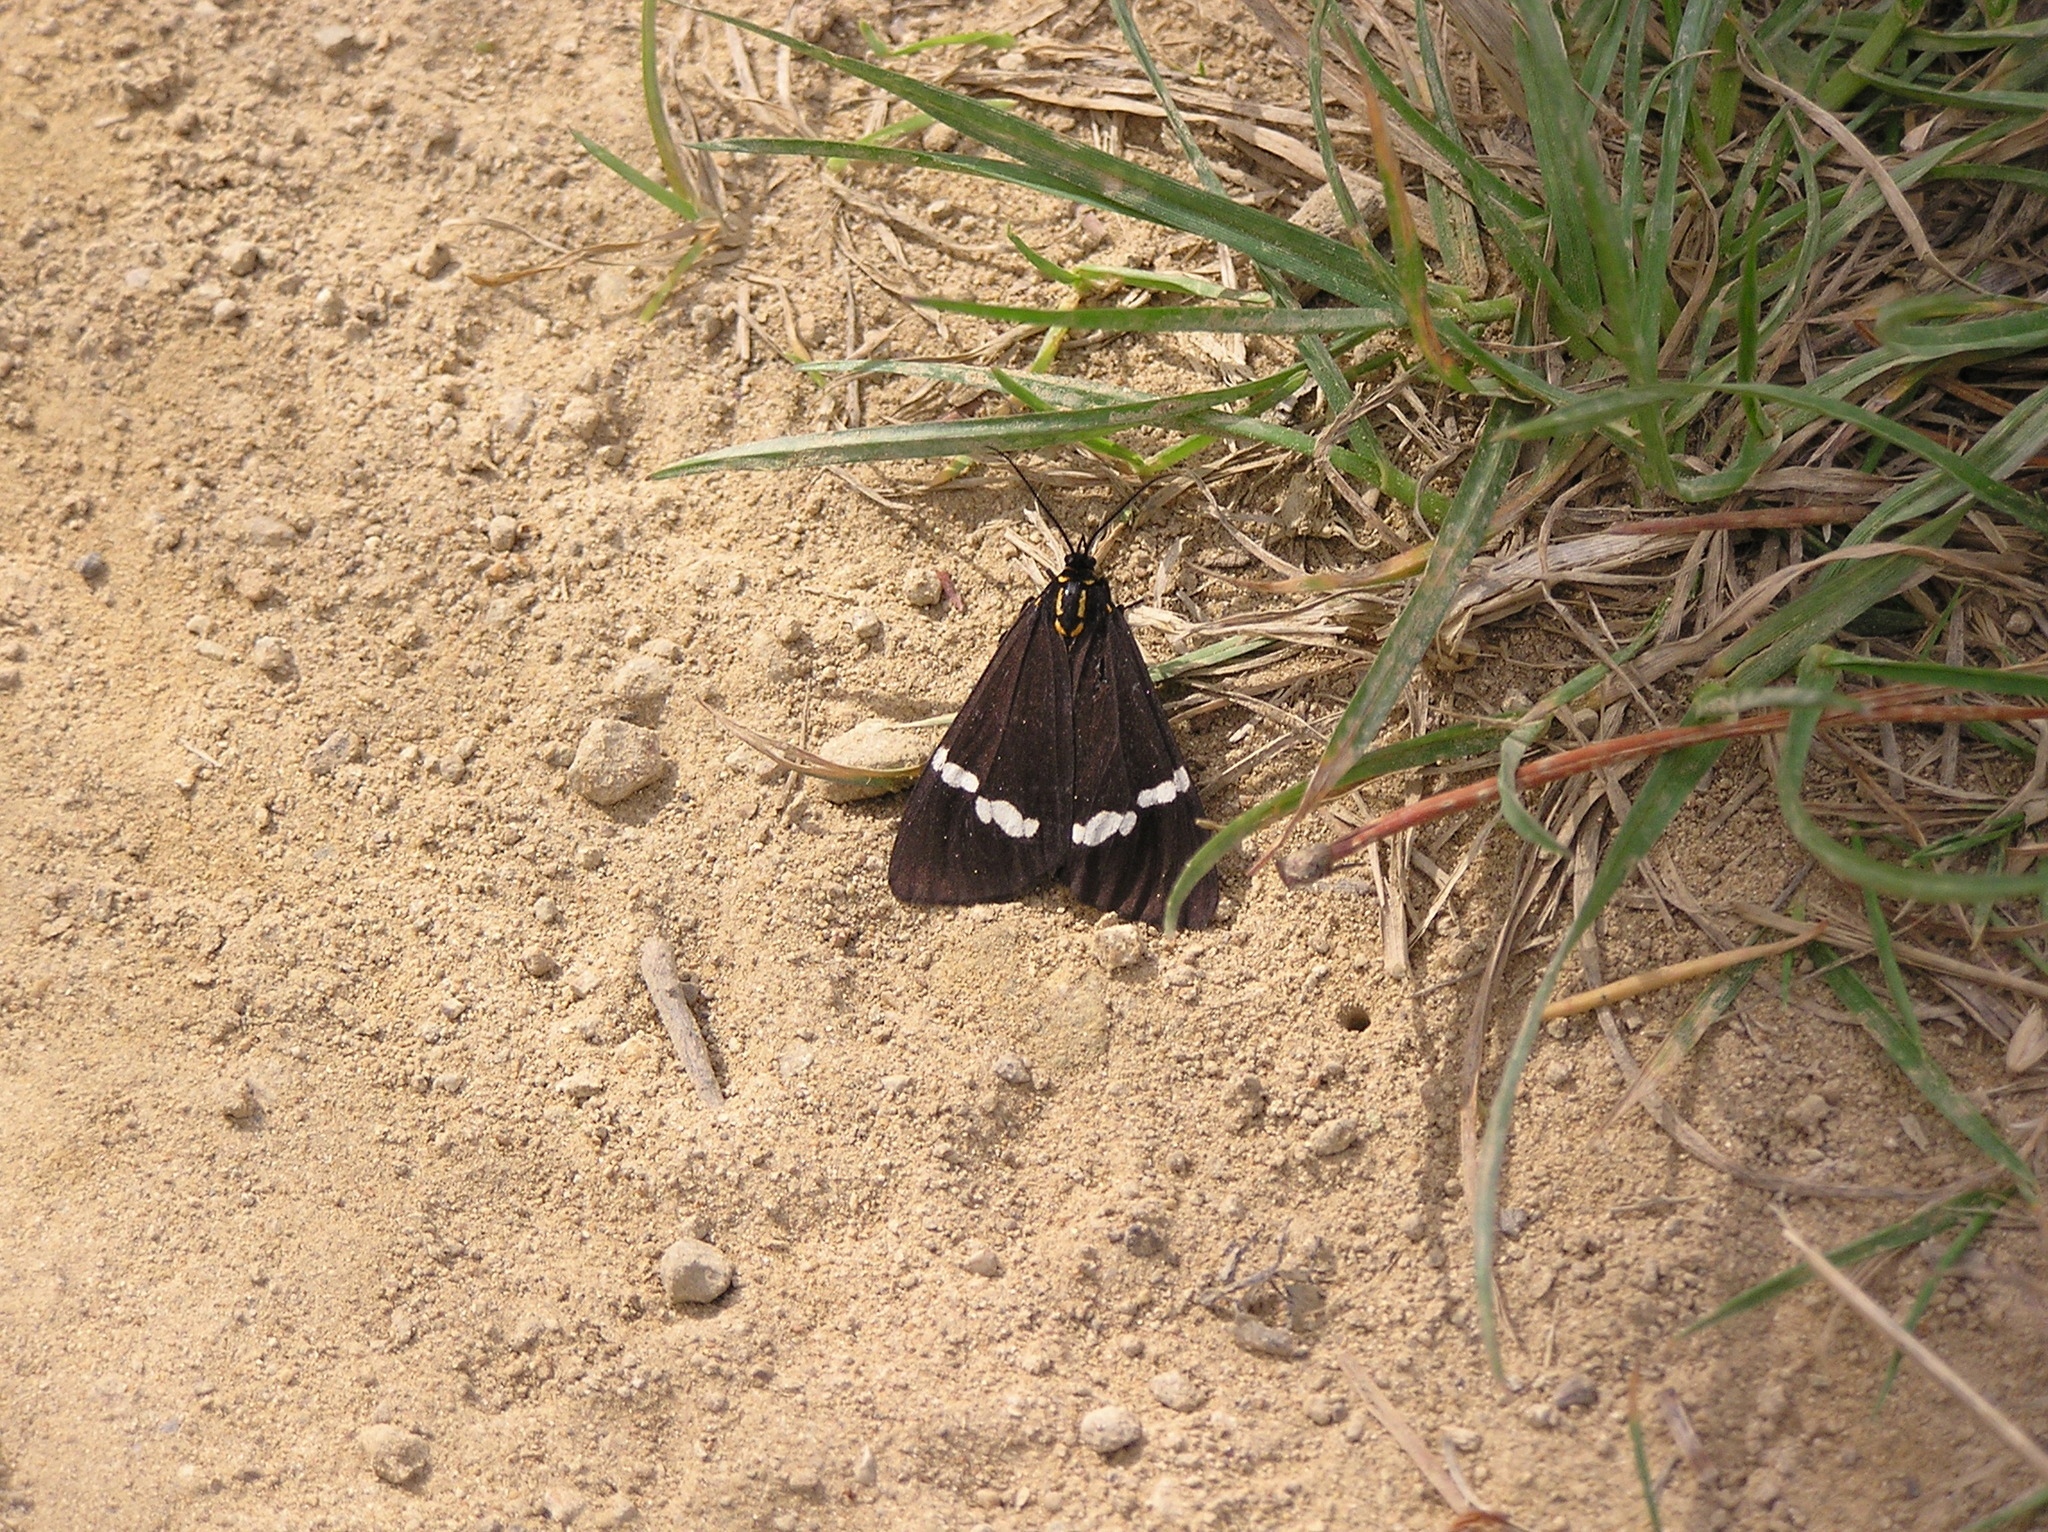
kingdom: Animalia
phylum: Arthropoda
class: Insecta
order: Lepidoptera
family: Erebidae
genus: Nyctemera
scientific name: Nyctemera annulatum
